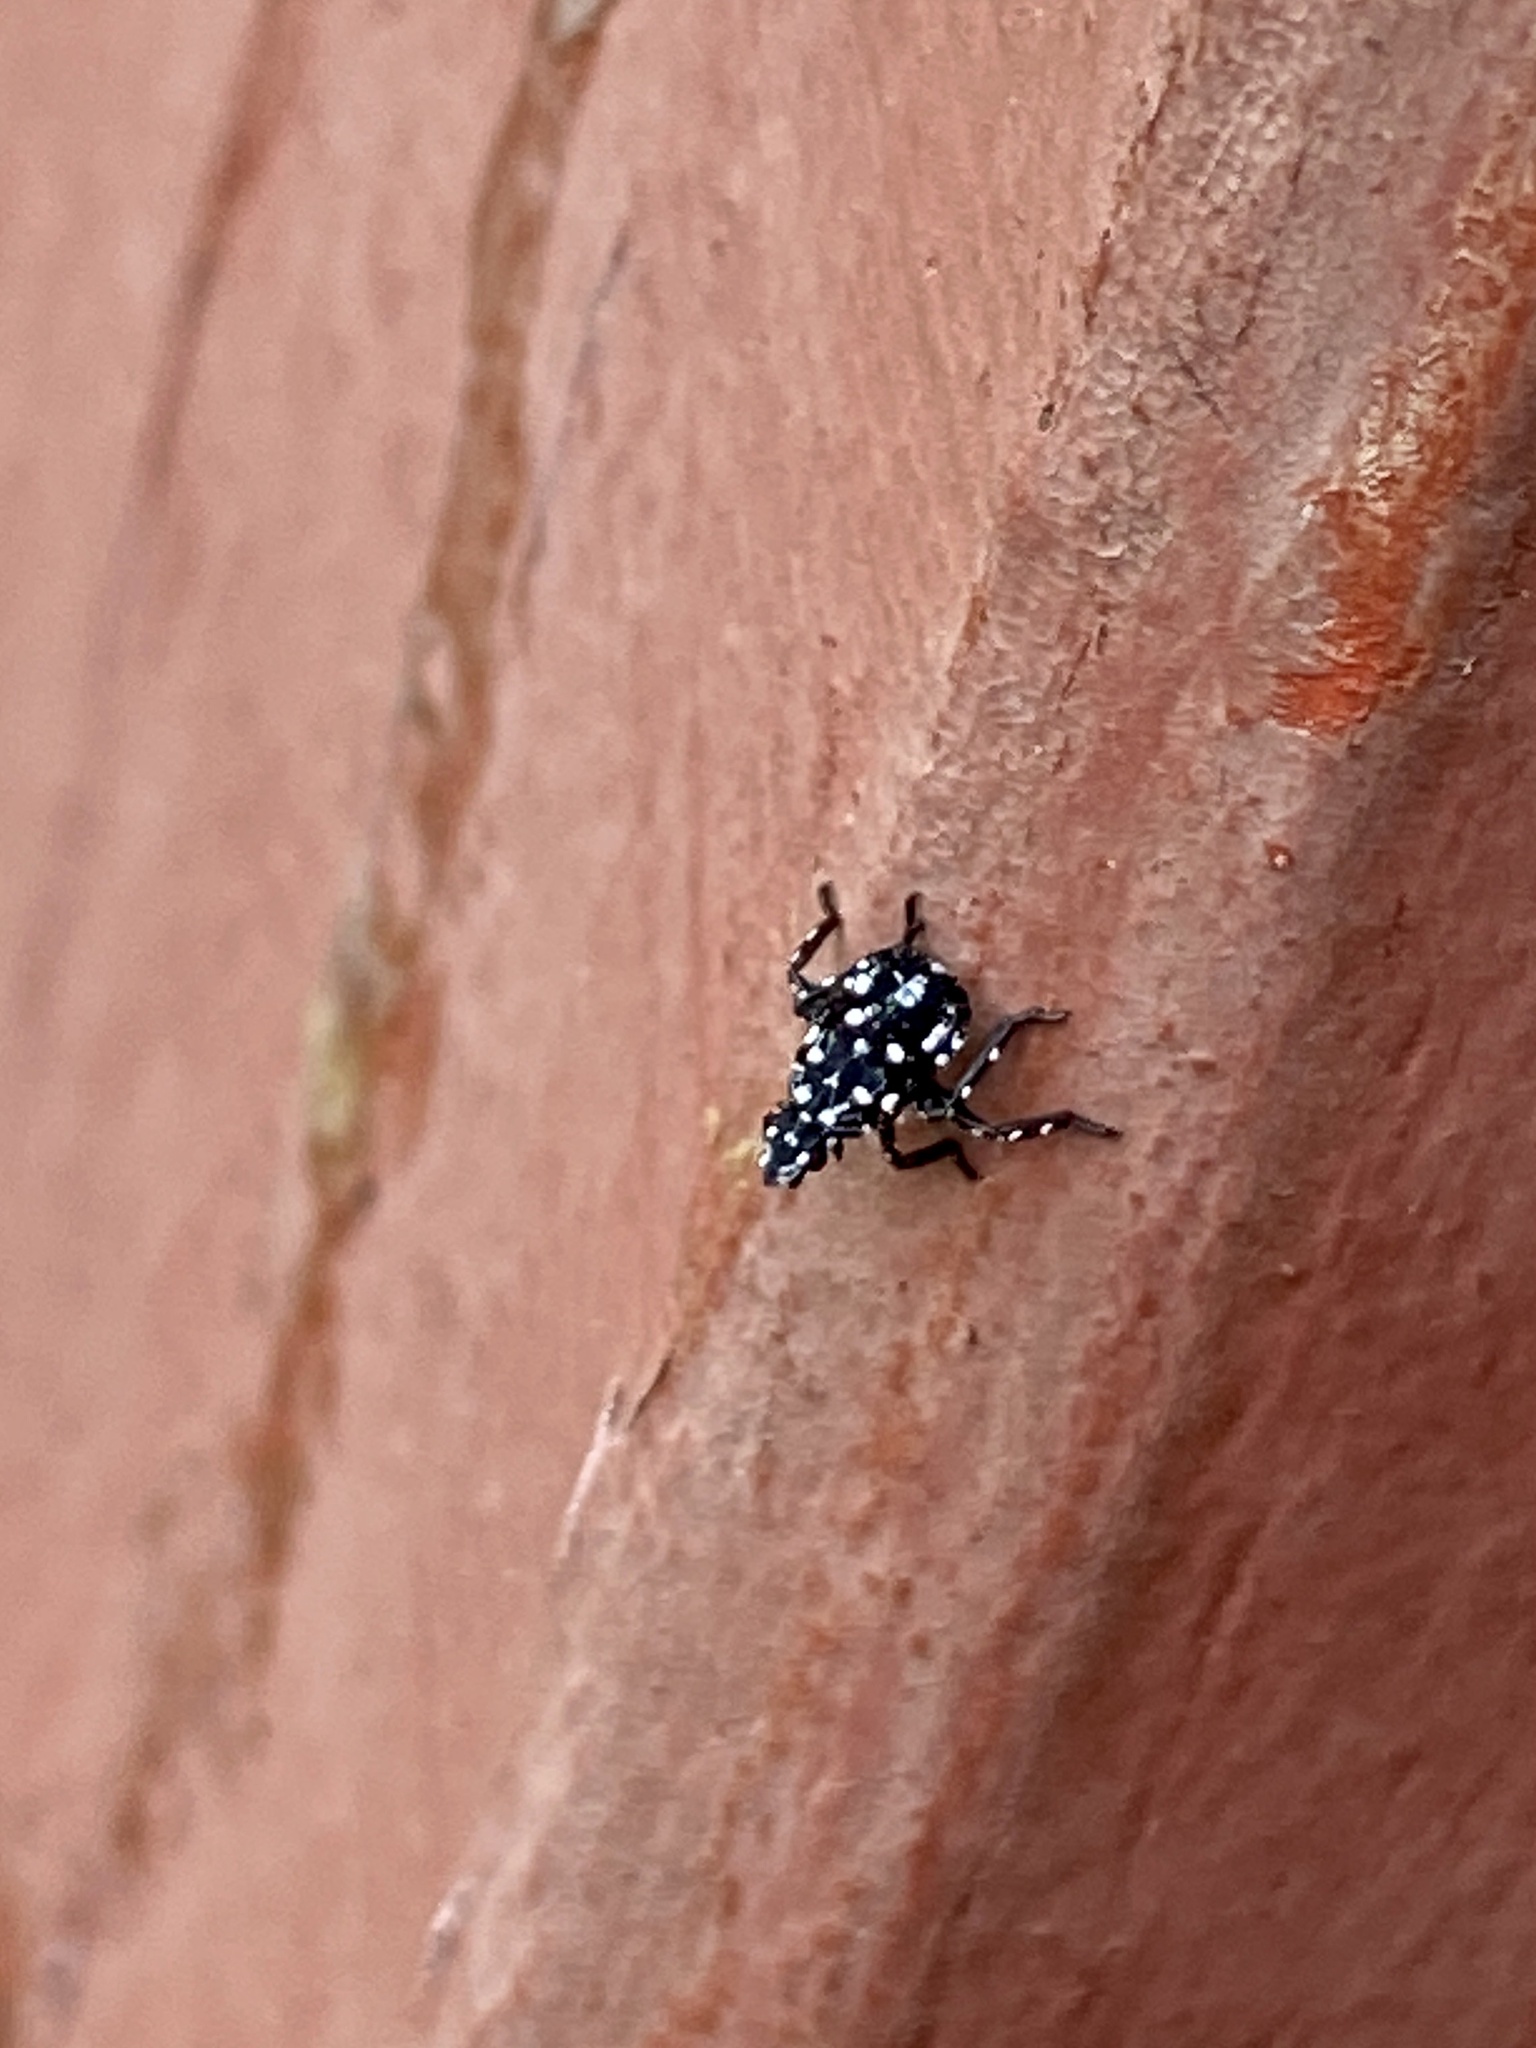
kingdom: Animalia
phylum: Arthropoda
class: Insecta
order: Hemiptera
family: Fulgoridae
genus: Lycorma
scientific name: Lycorma delicatula
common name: Spotted lanternfly
